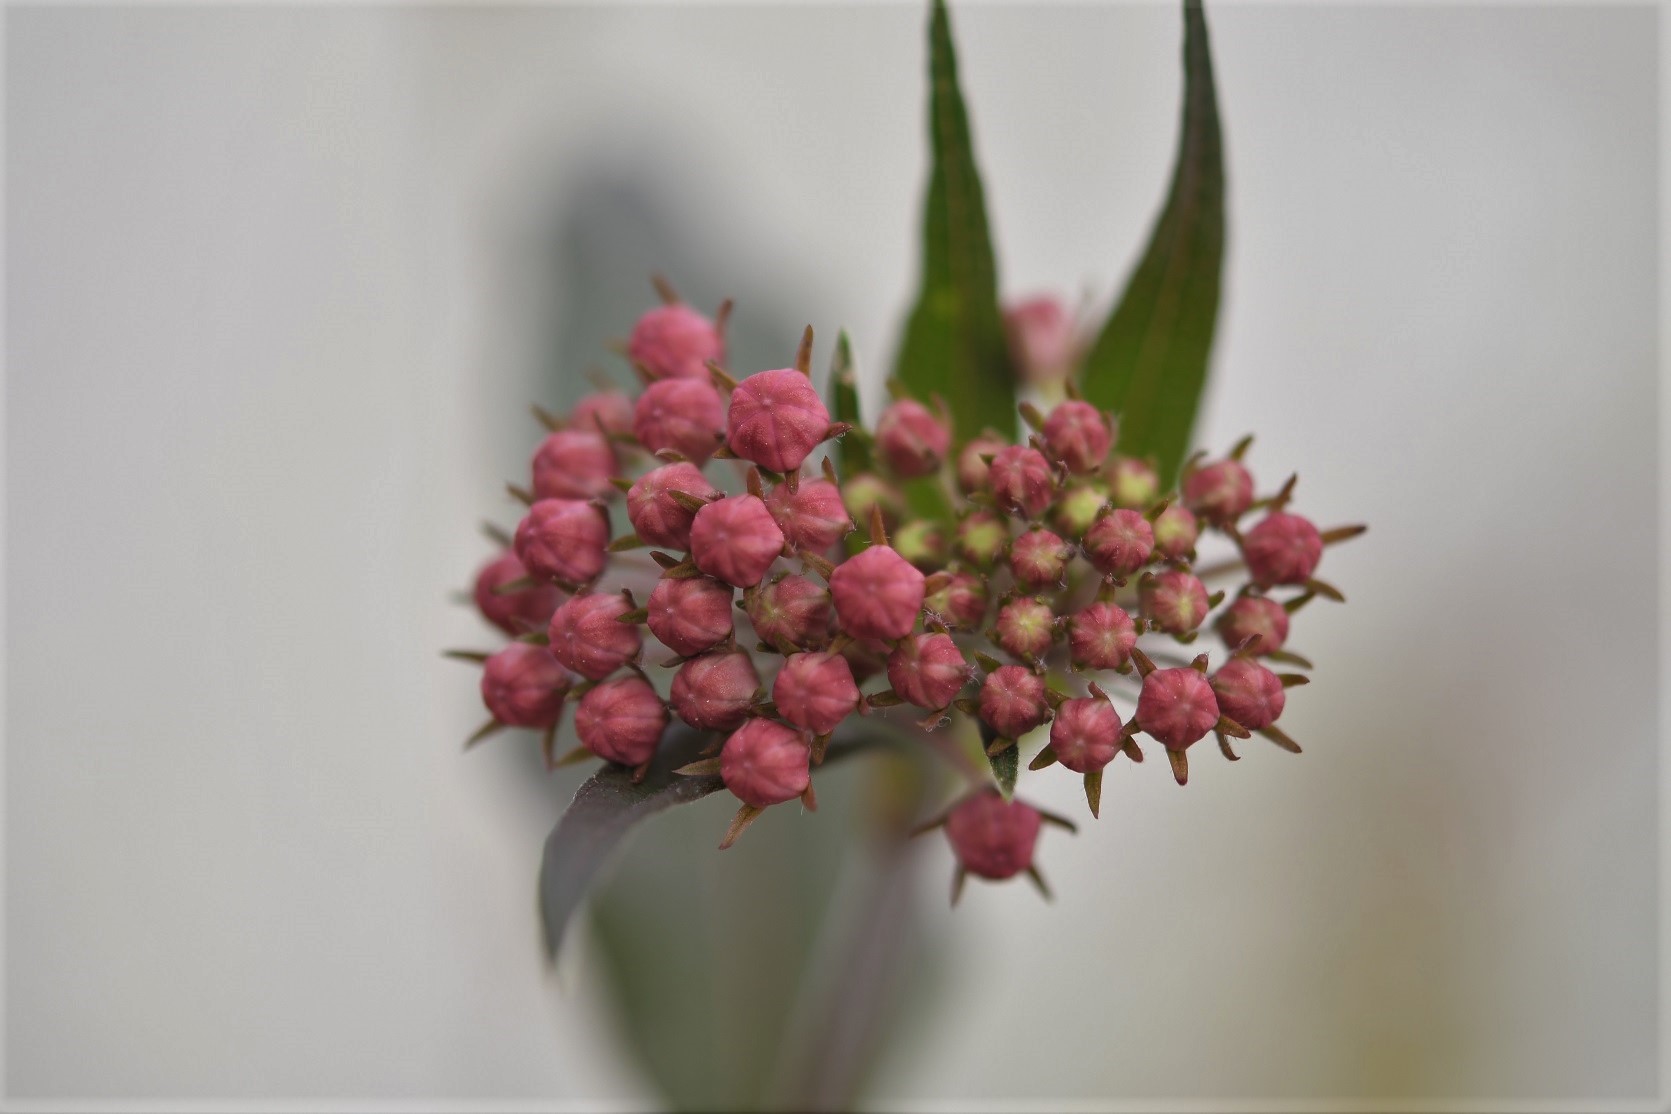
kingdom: Plantae
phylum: Tracheophyta
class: Magnoliopsida
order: Gentianales
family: Apocynaceae
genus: Asclepias
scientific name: Asclepias pellucida
